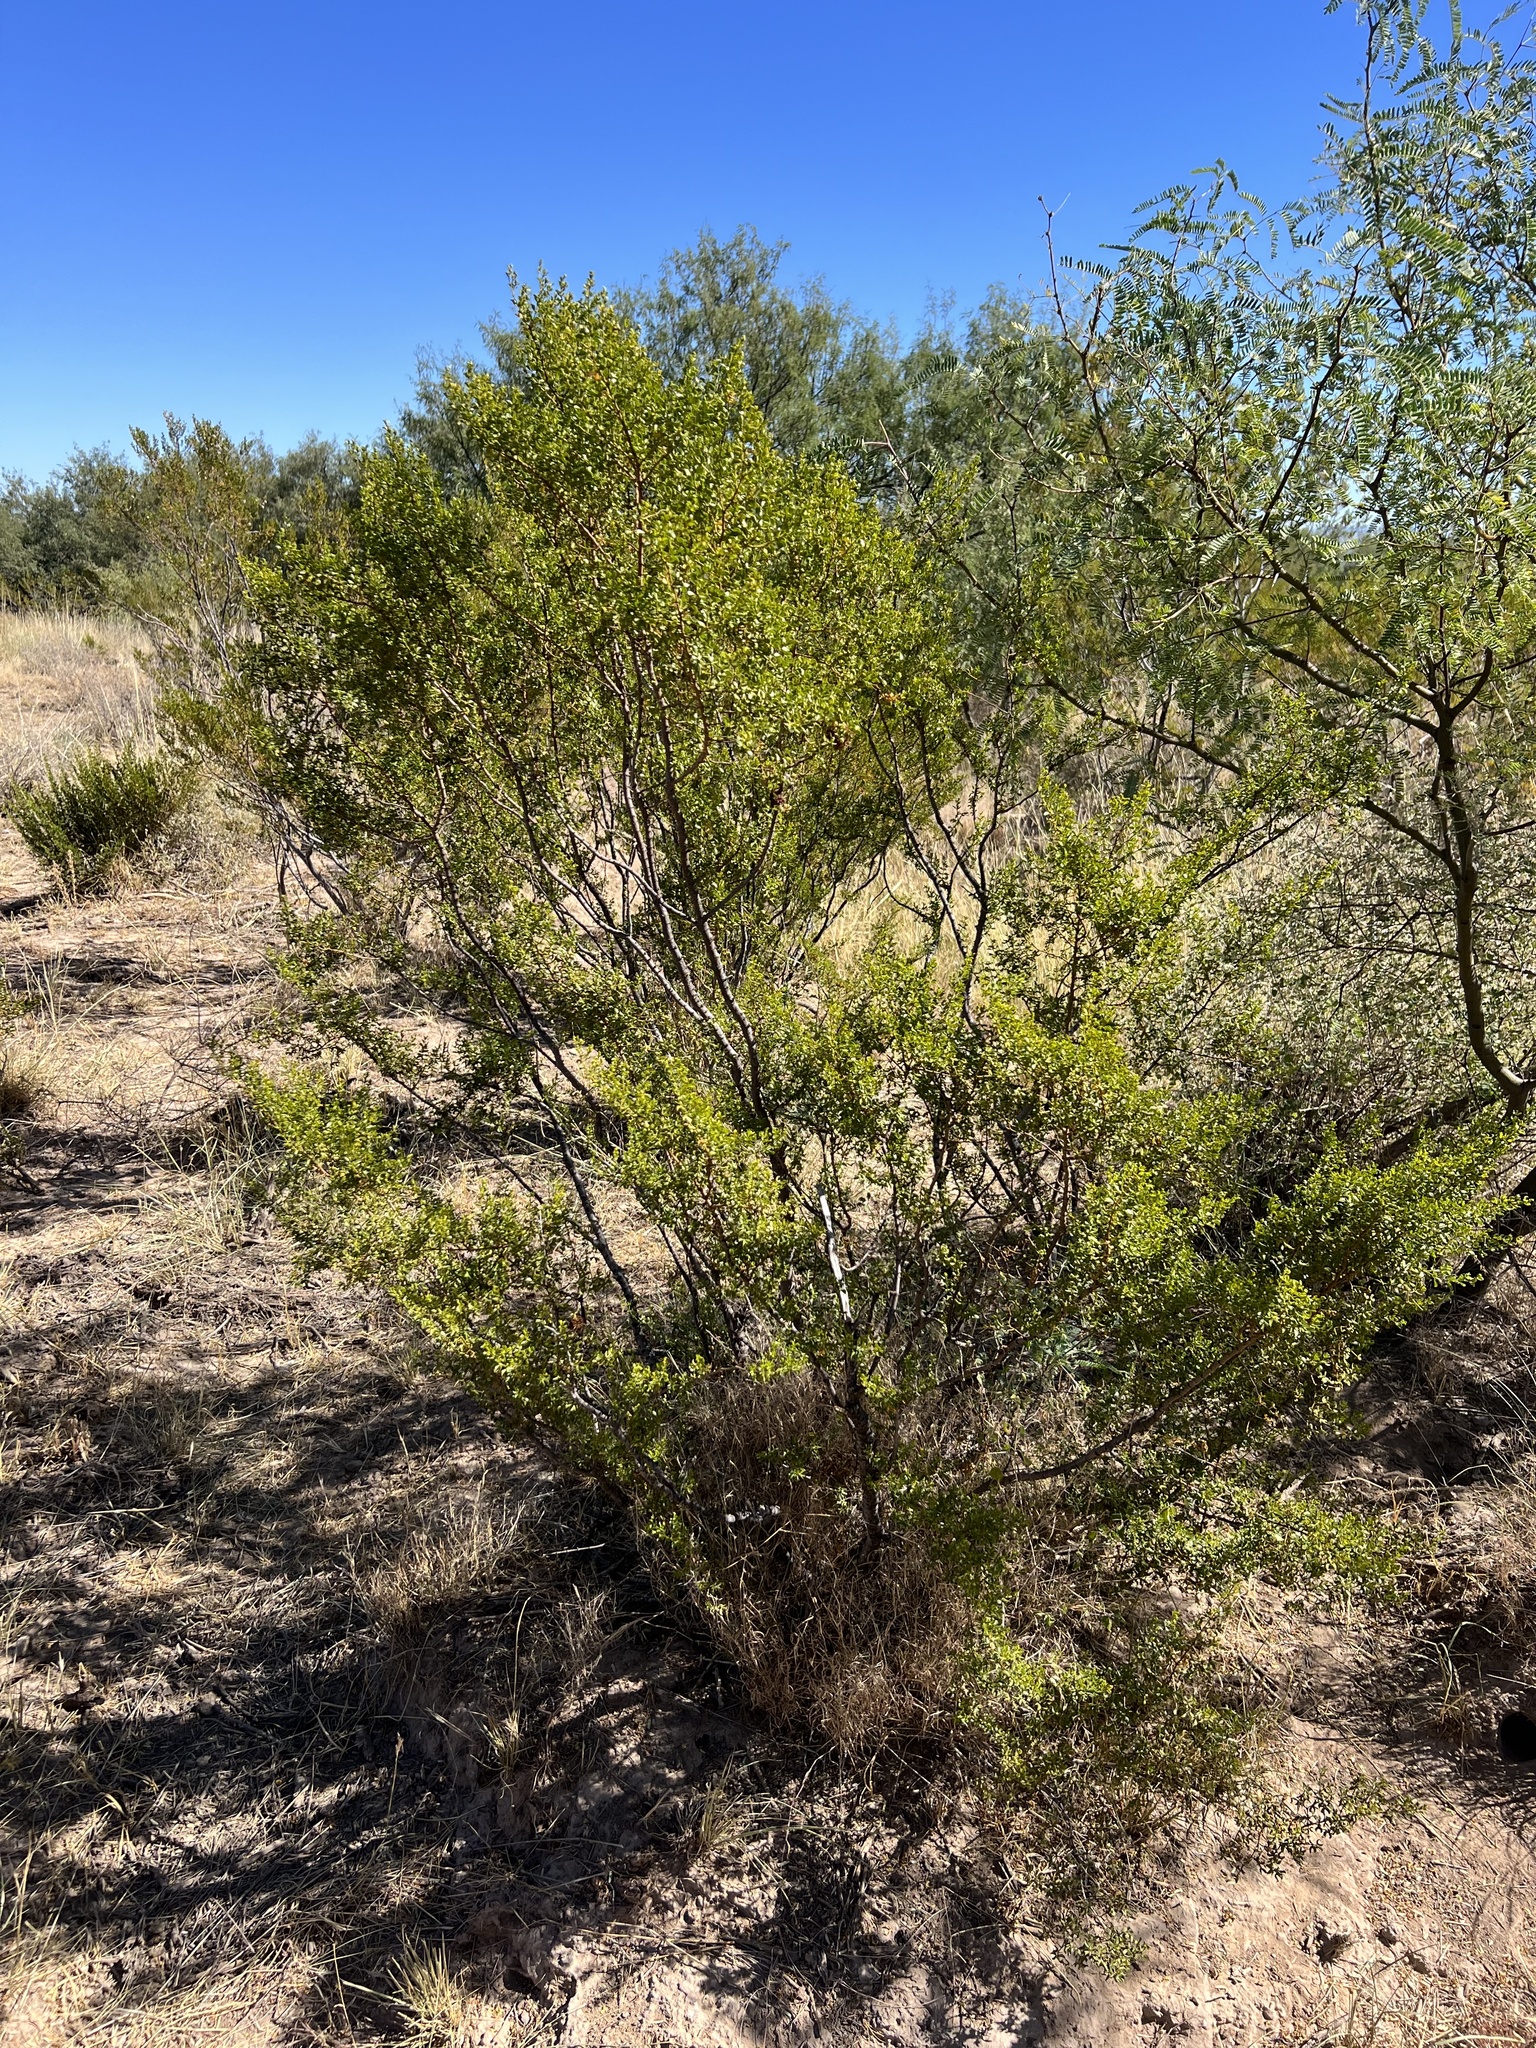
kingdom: Plantae
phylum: Tracheophyta
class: Magnoliopsida
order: Zygophyllales
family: Zygophyllaceae
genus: Larrea
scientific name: Larrea tridentata
